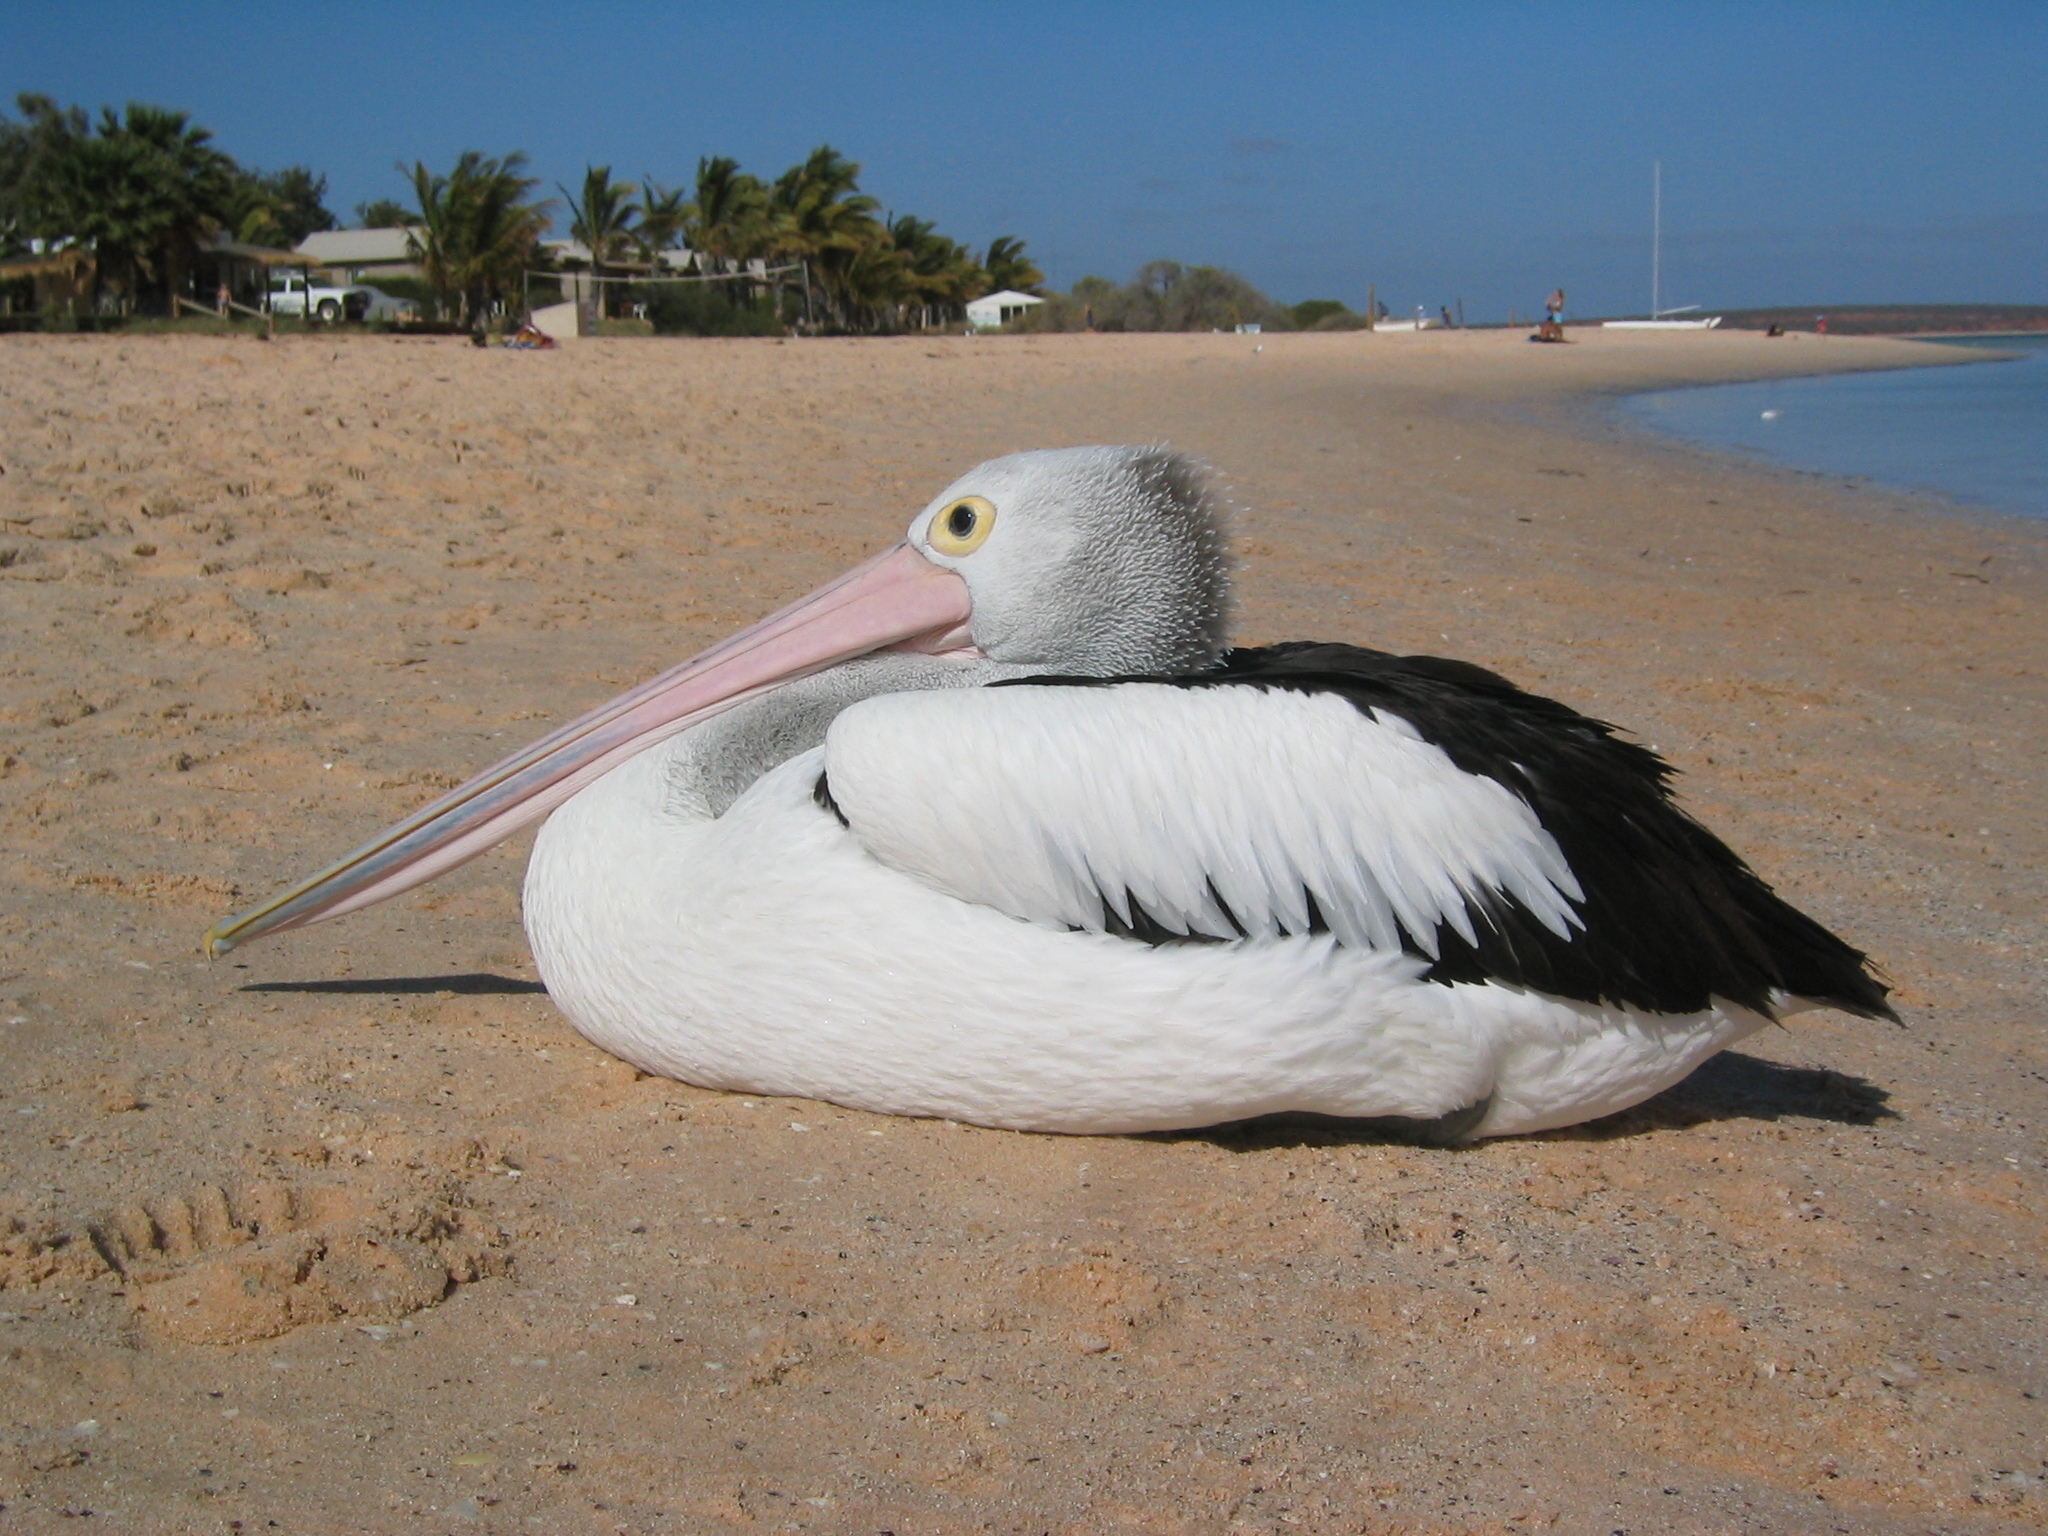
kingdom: Animalia
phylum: Chordata
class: Aves
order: Pelecaniformes
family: Pelecanidae
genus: Pelecanus
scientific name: Pelecanus conspicillatus
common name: Australian pelican
